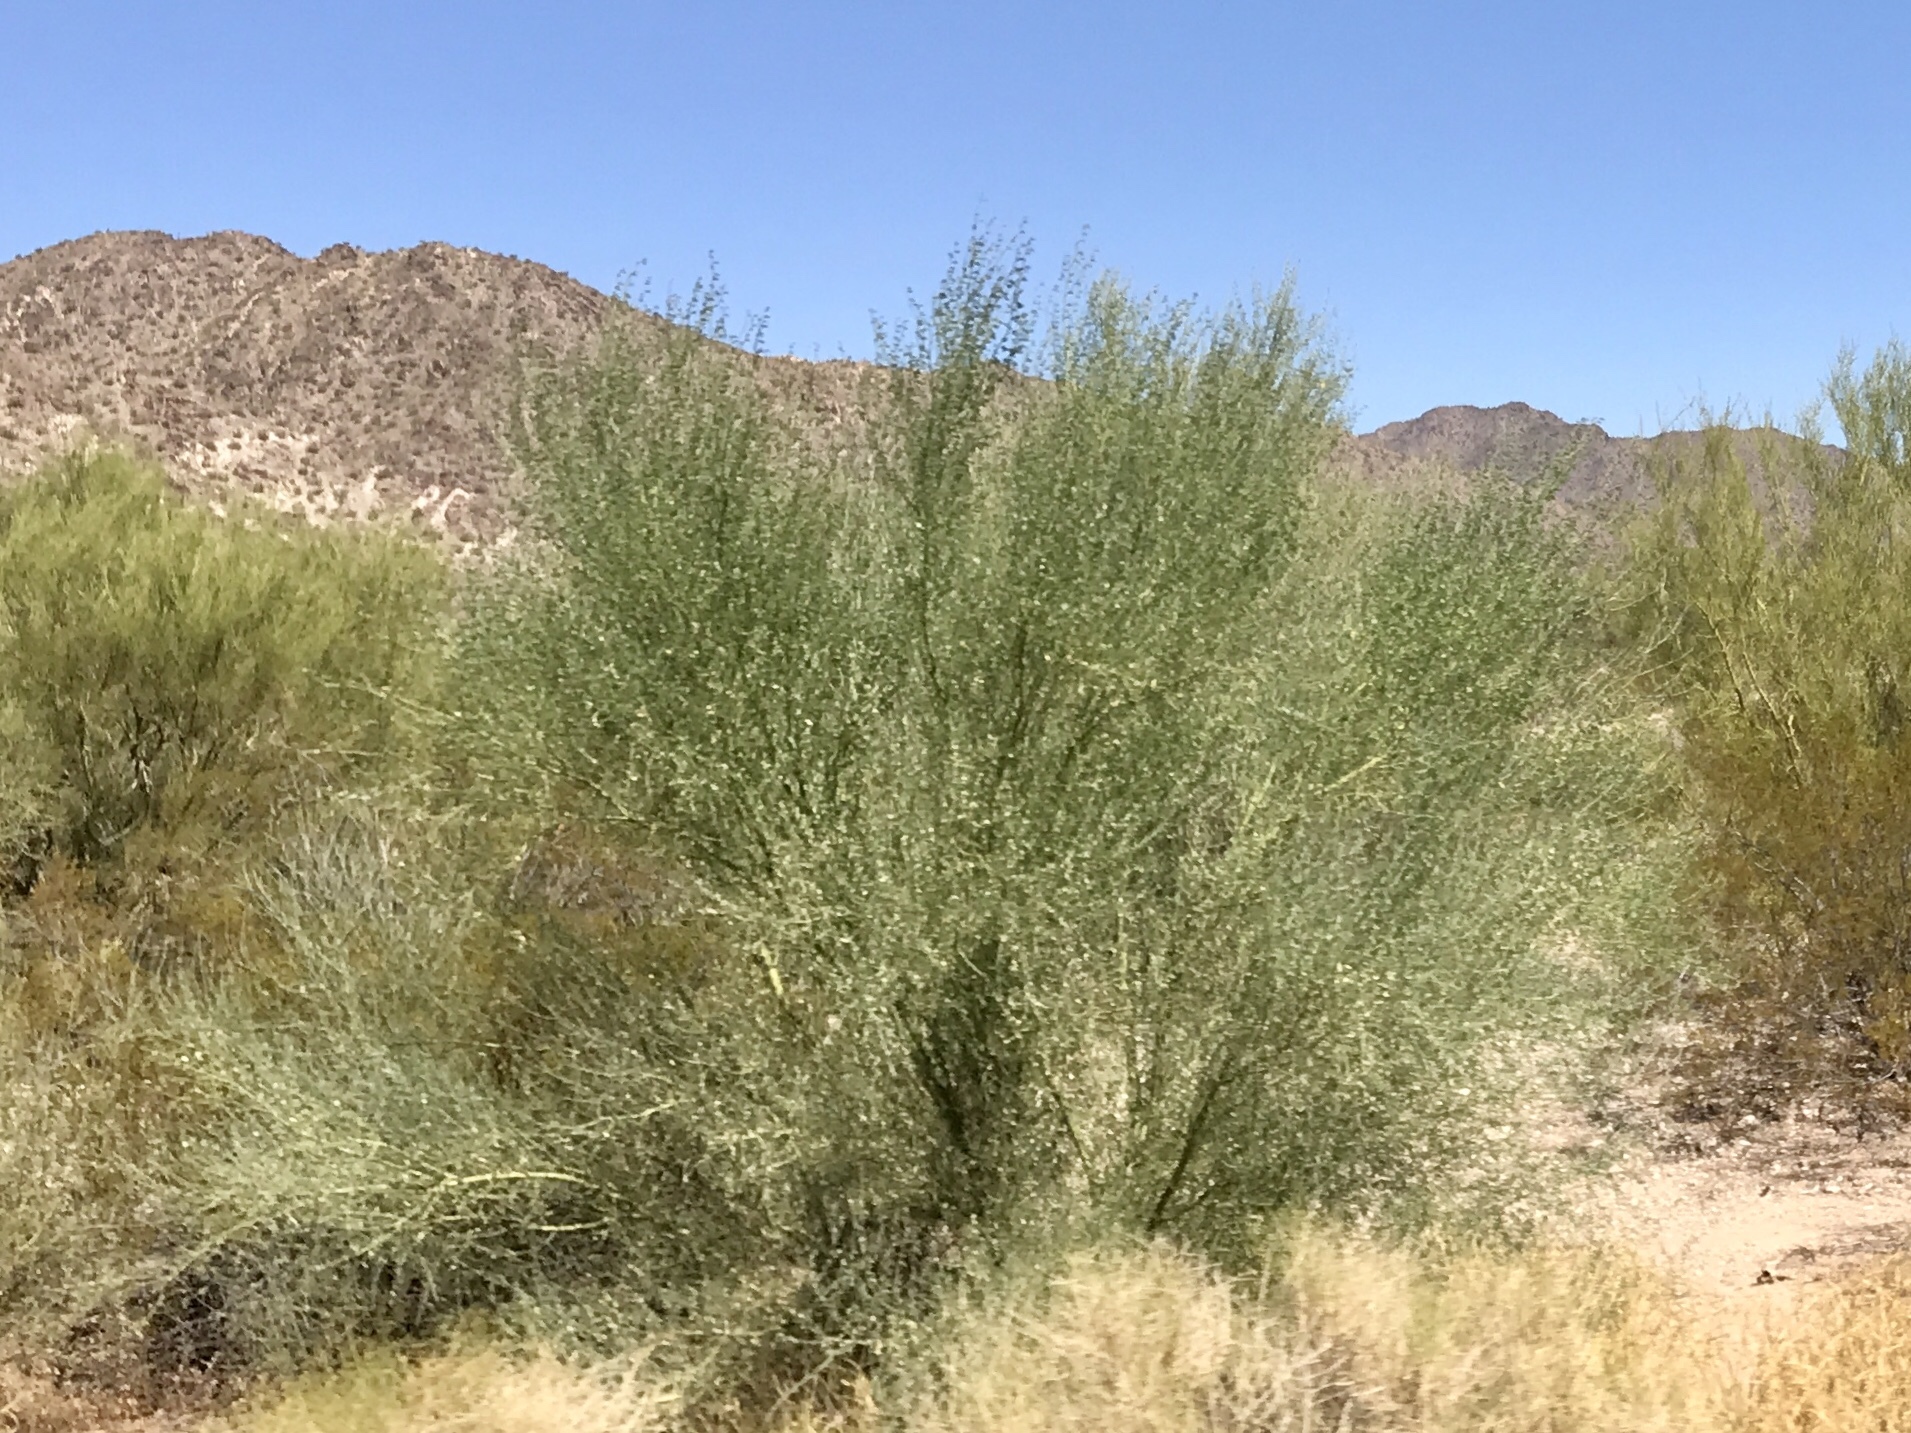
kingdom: Plantae
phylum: Tracheophyta
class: Magnoliopsida
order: Fabales
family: Fabaceae
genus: Parkinsonia
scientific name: Parkinsonia florida
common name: Blue paloverde
